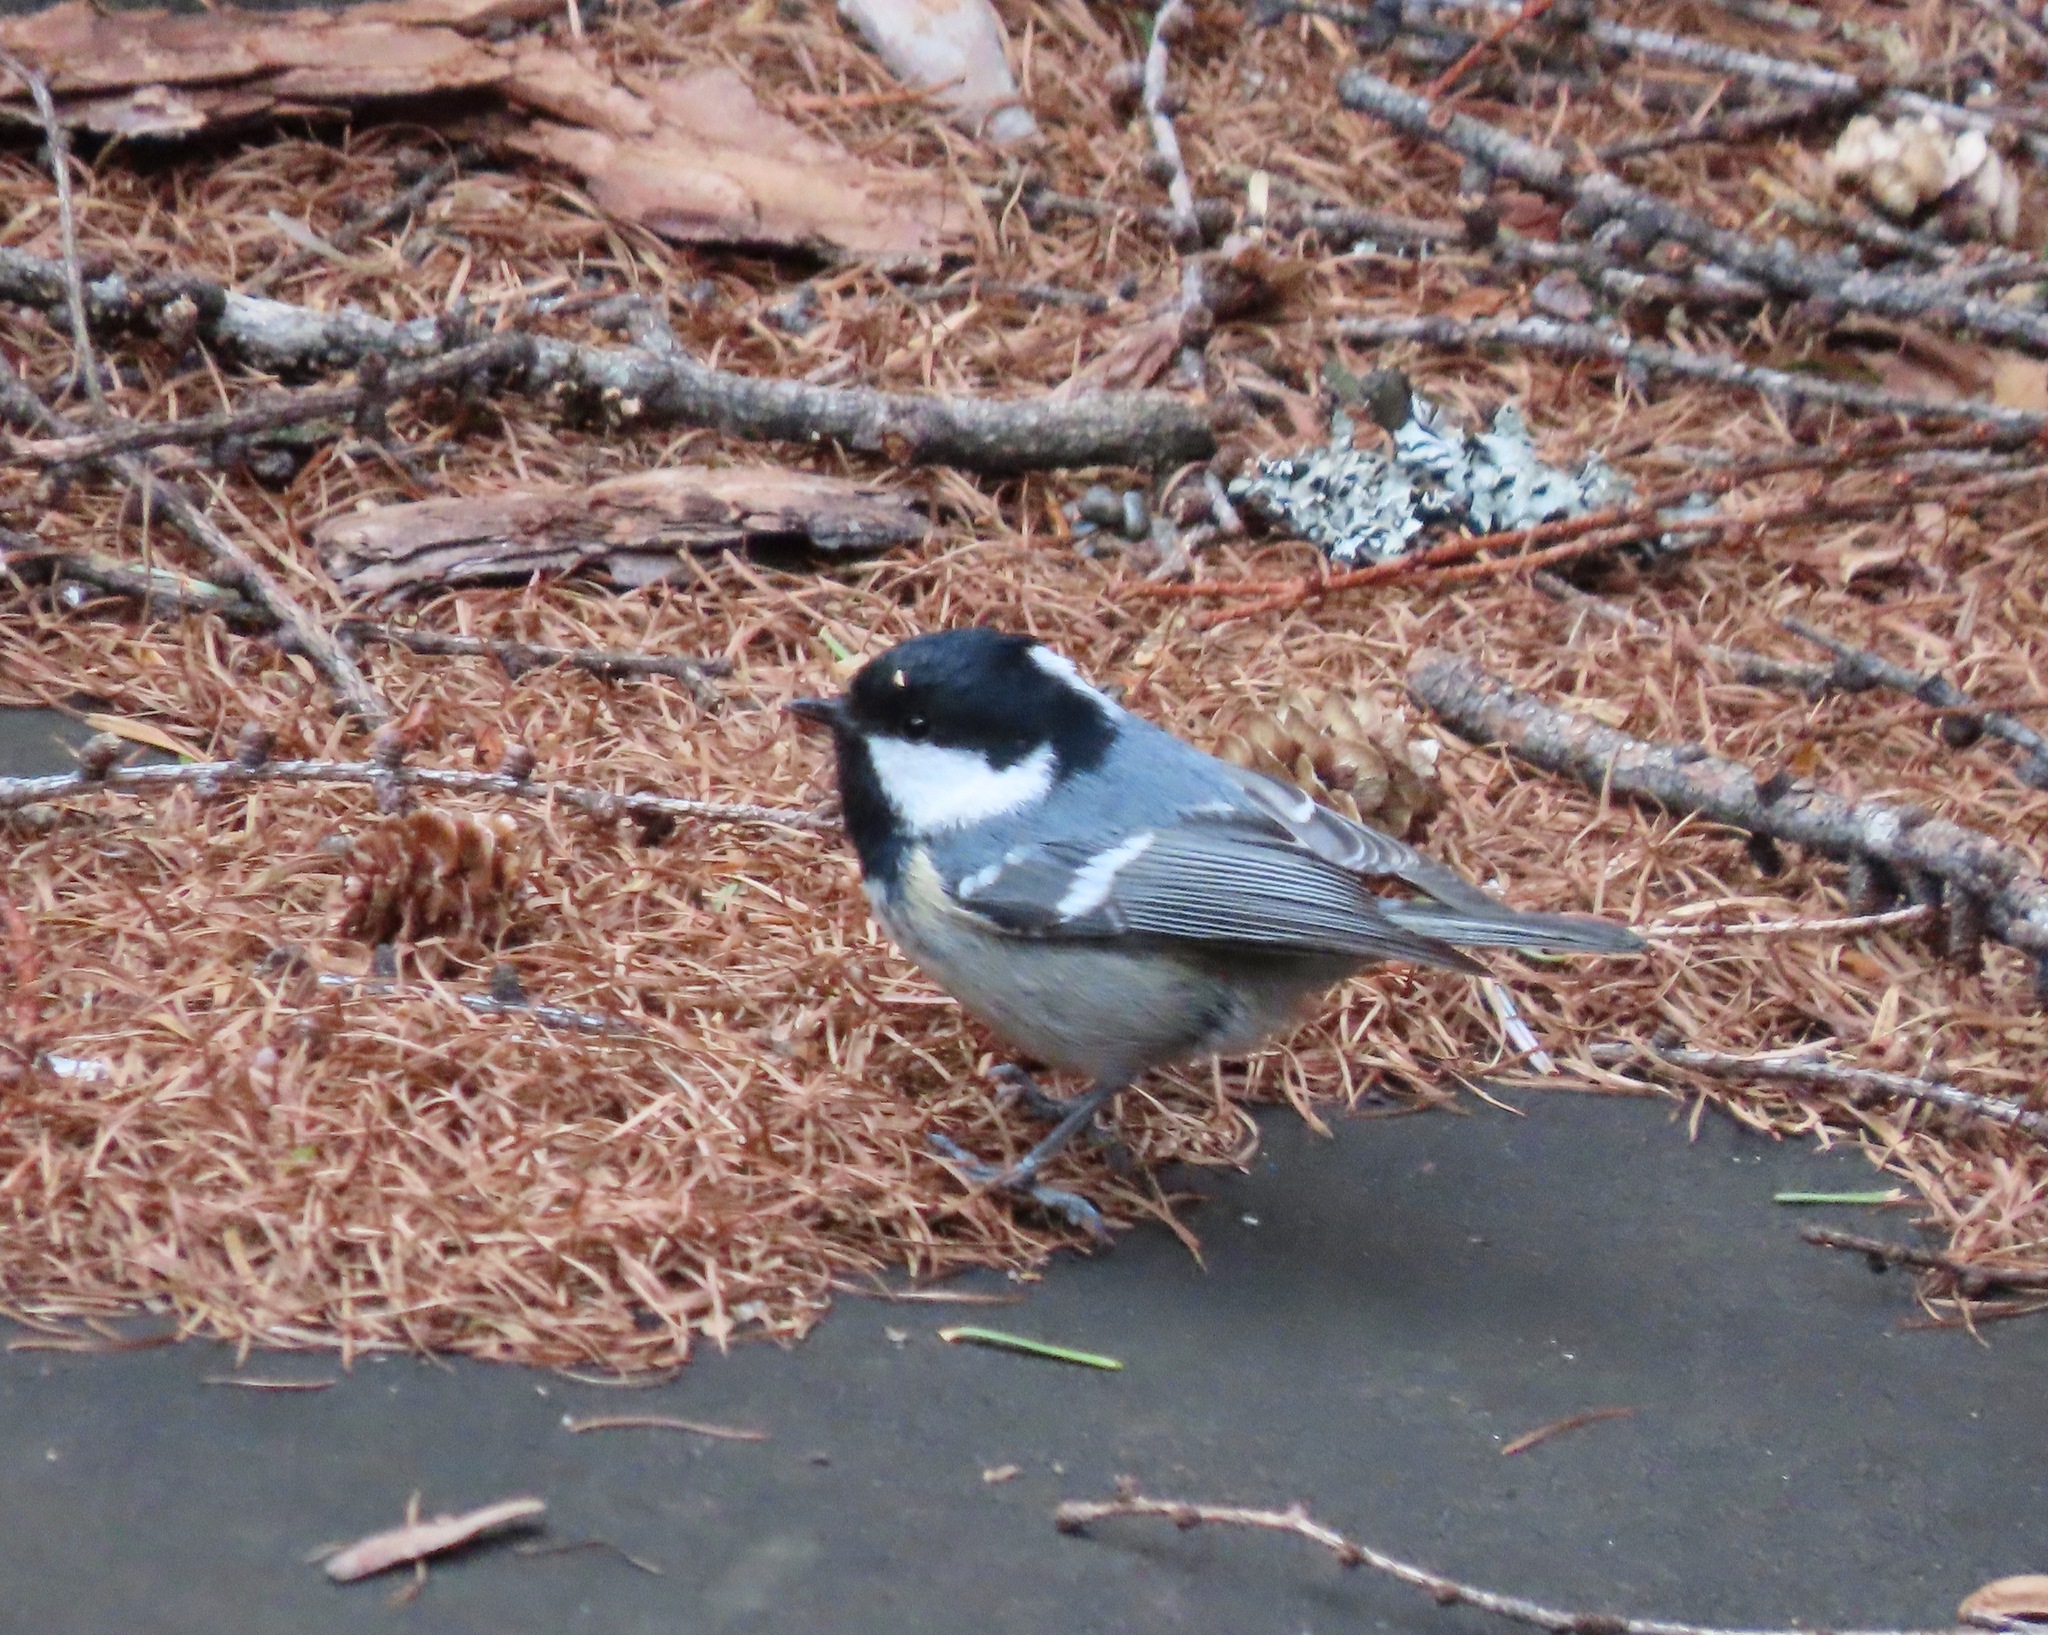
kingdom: Animalia
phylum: Chordata
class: Aves
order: Passeriformes
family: Paridae
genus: Periparus
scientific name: Periparus ater
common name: Coal tit
